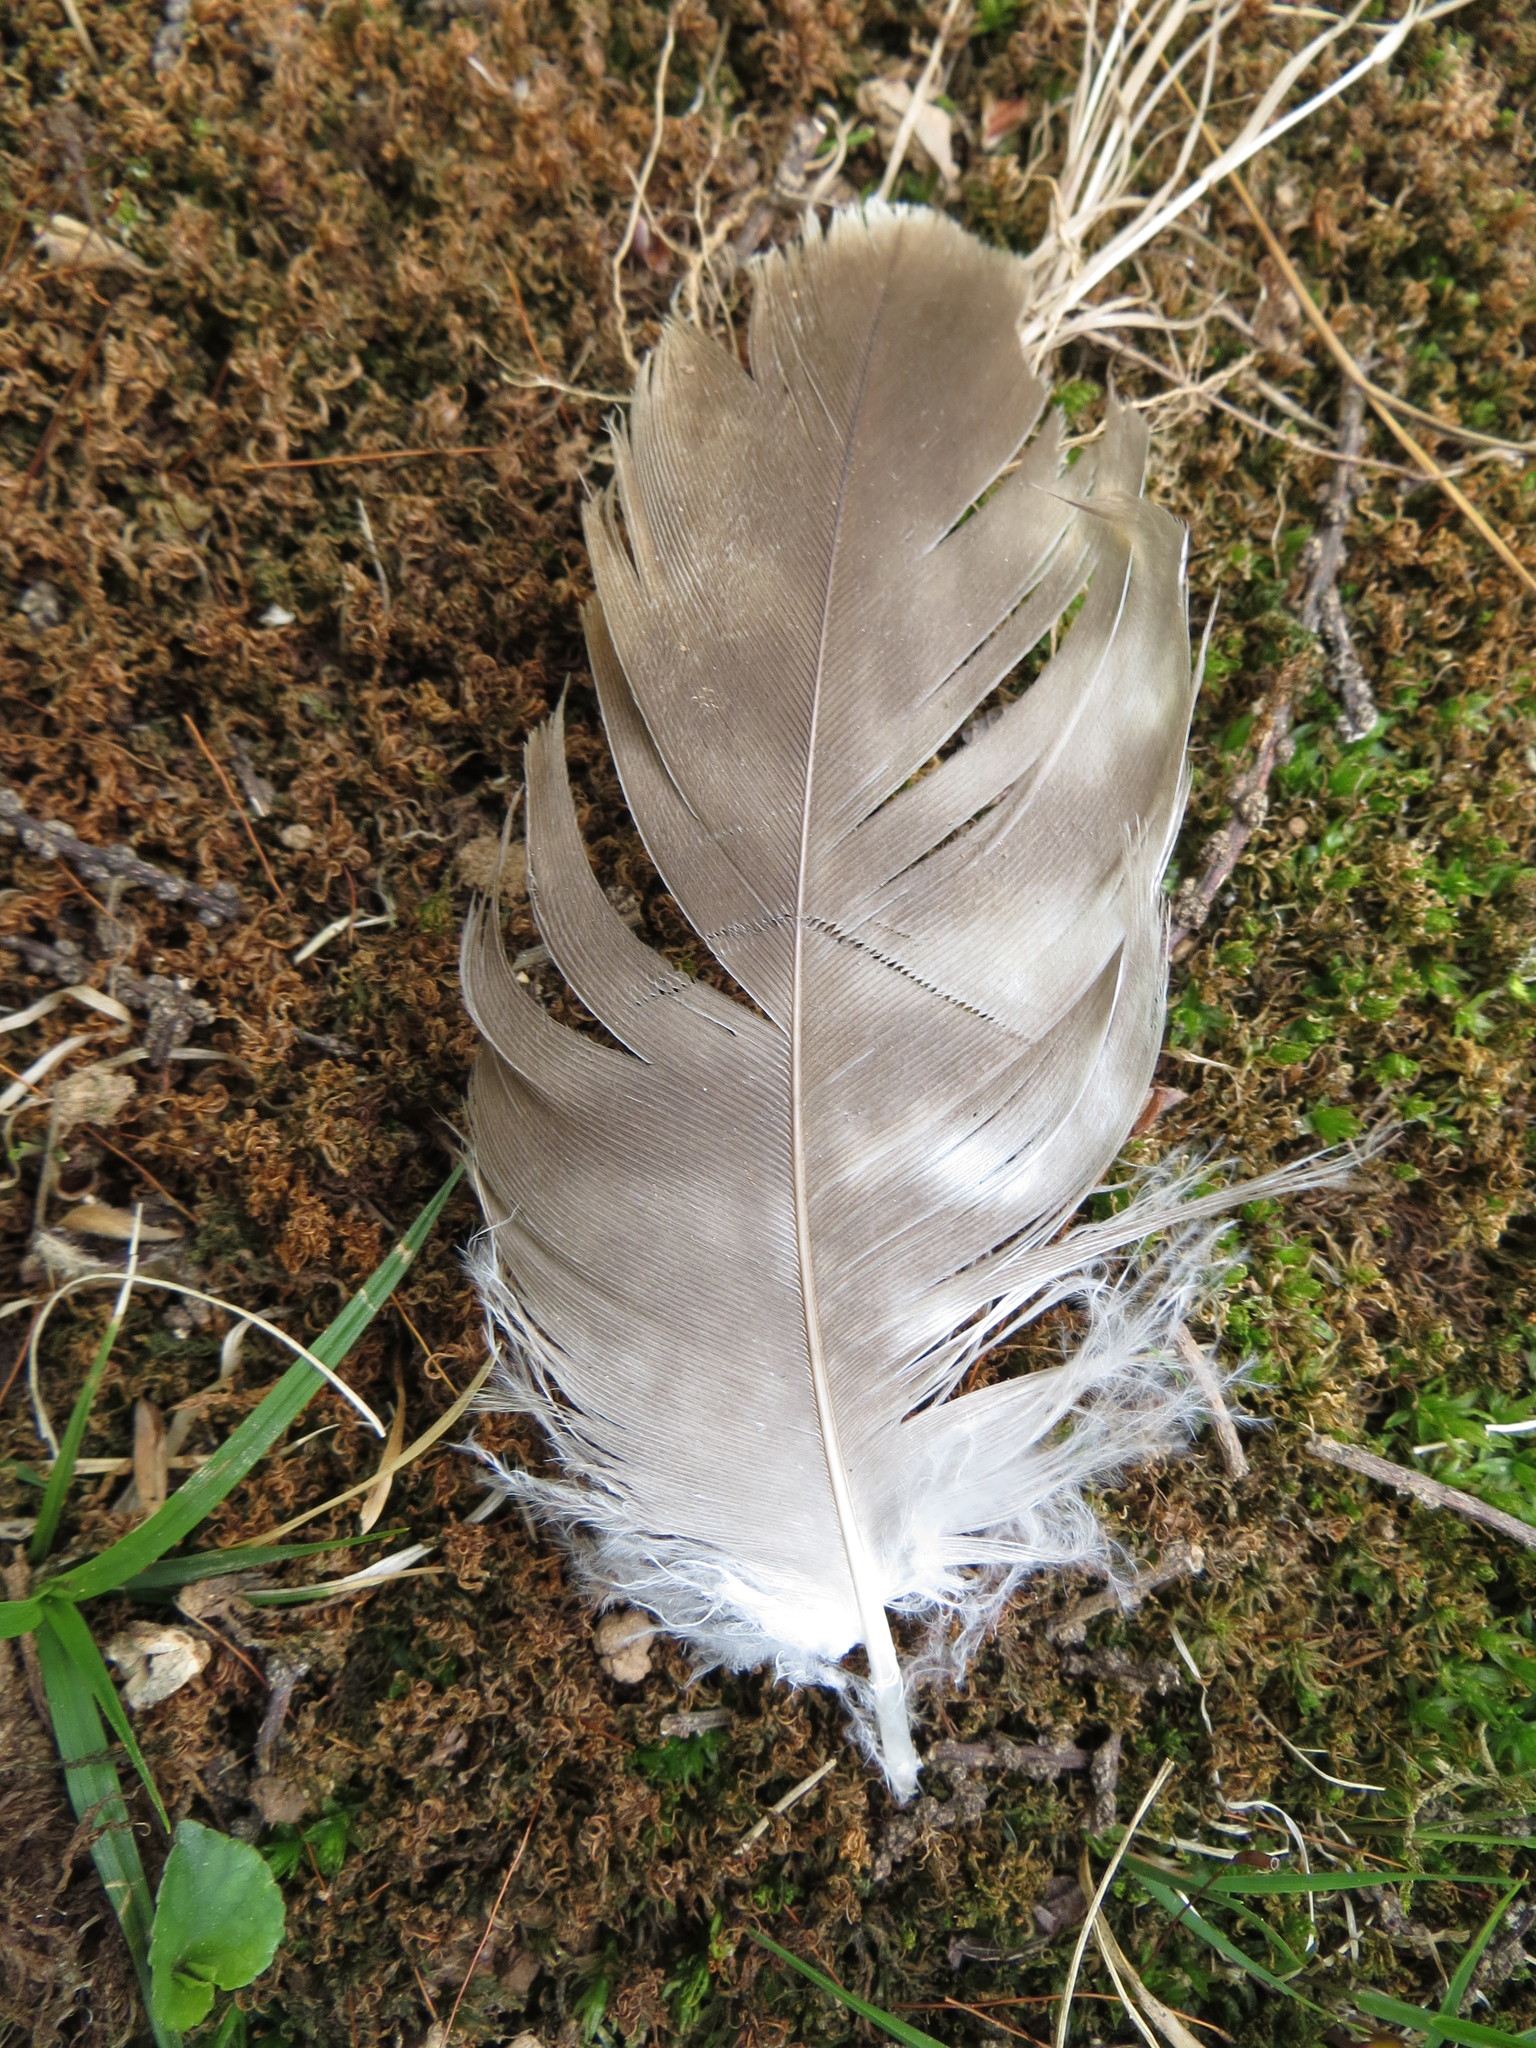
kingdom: Animalia
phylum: Chordata
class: Aves
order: Accipitriformes
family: Accipitridae
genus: Buteo
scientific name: Buteo buteo
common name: Common buzzard
